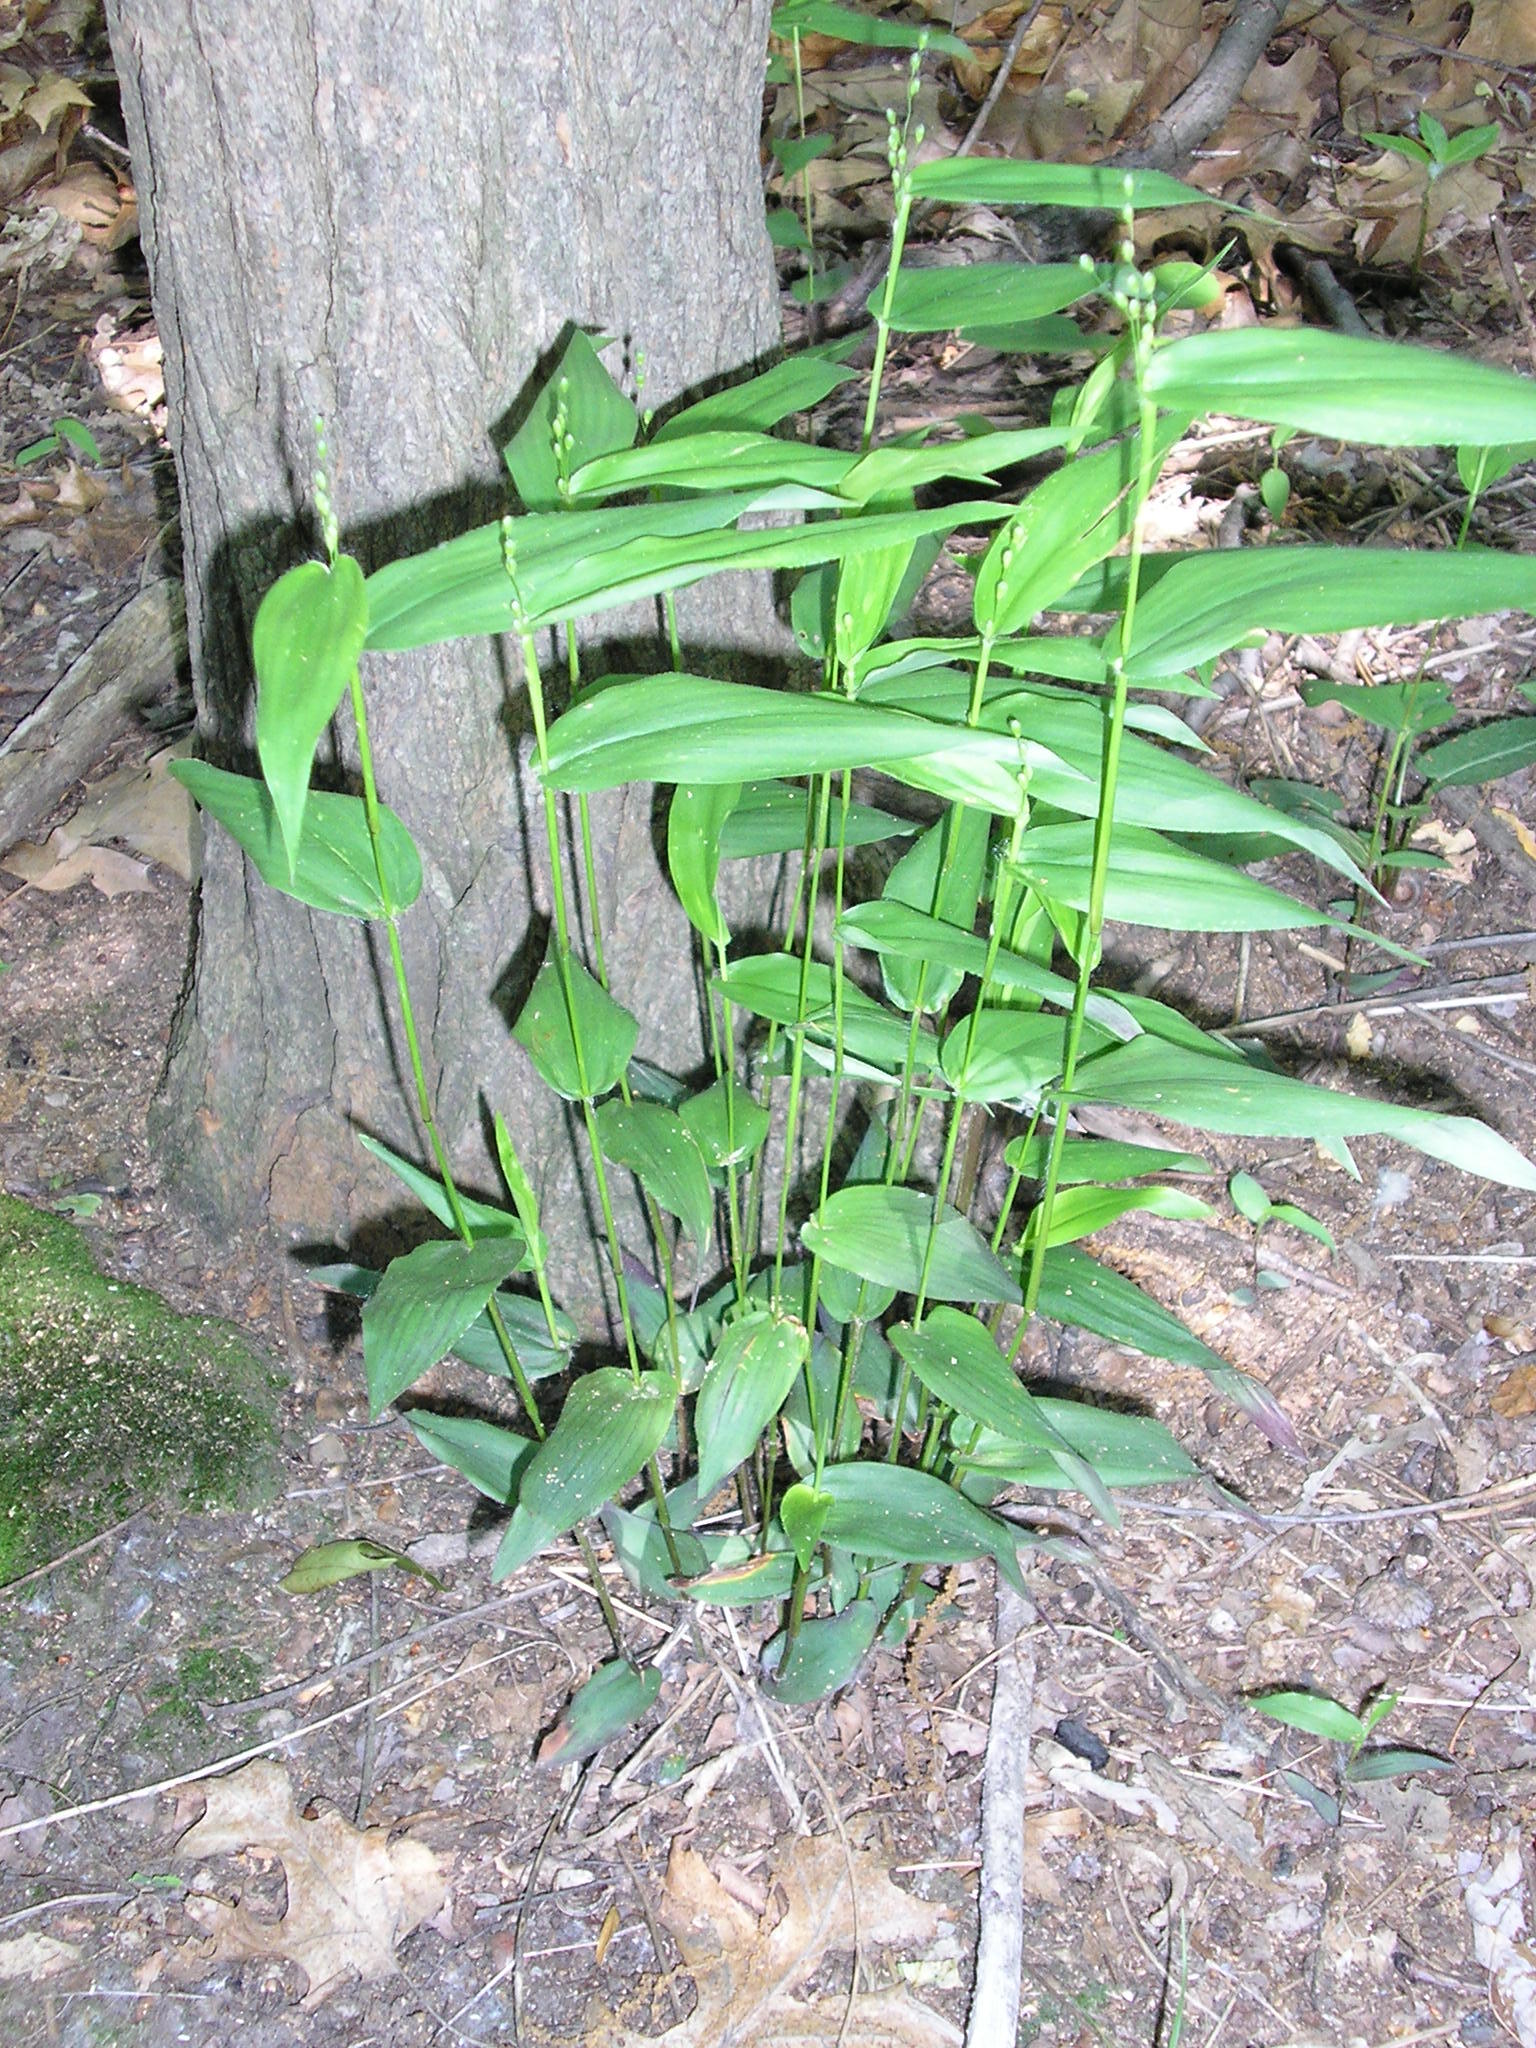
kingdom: Plantae
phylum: Tracheophyta
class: Liliopsida
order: Poales
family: Poaceae
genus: Dichanthelium
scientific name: Dichanthelium commutatum
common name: Variable witchgrass
